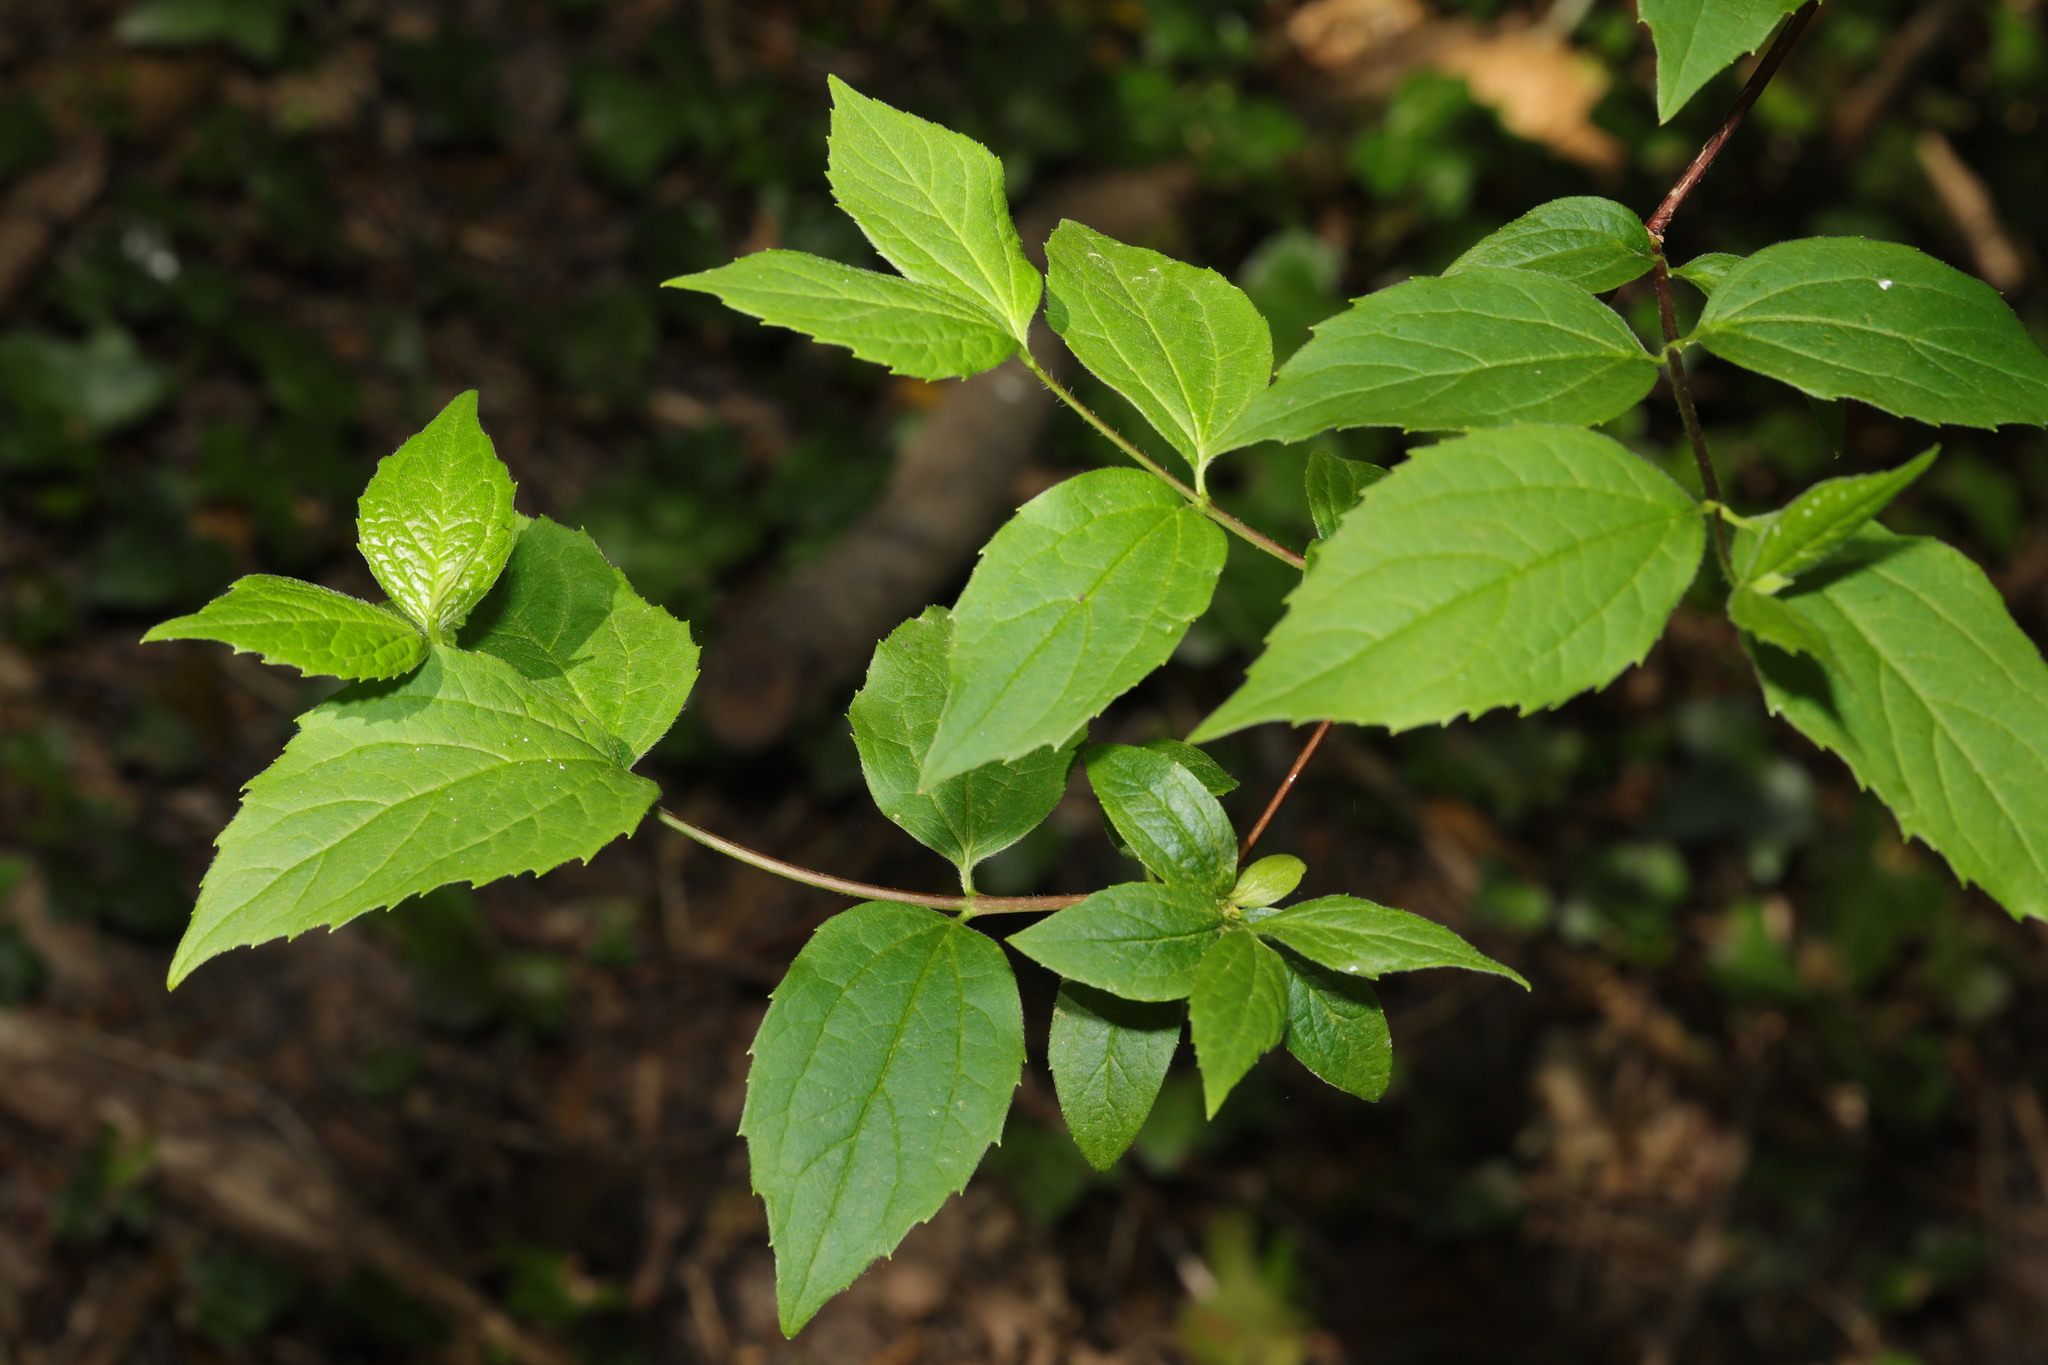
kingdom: Plantae
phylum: Tracheophyta
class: Magnoliopsida
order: Cornales
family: Hydrangeaceae
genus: Philadelphus
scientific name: Philadelphus coronarius
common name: Mock orange
